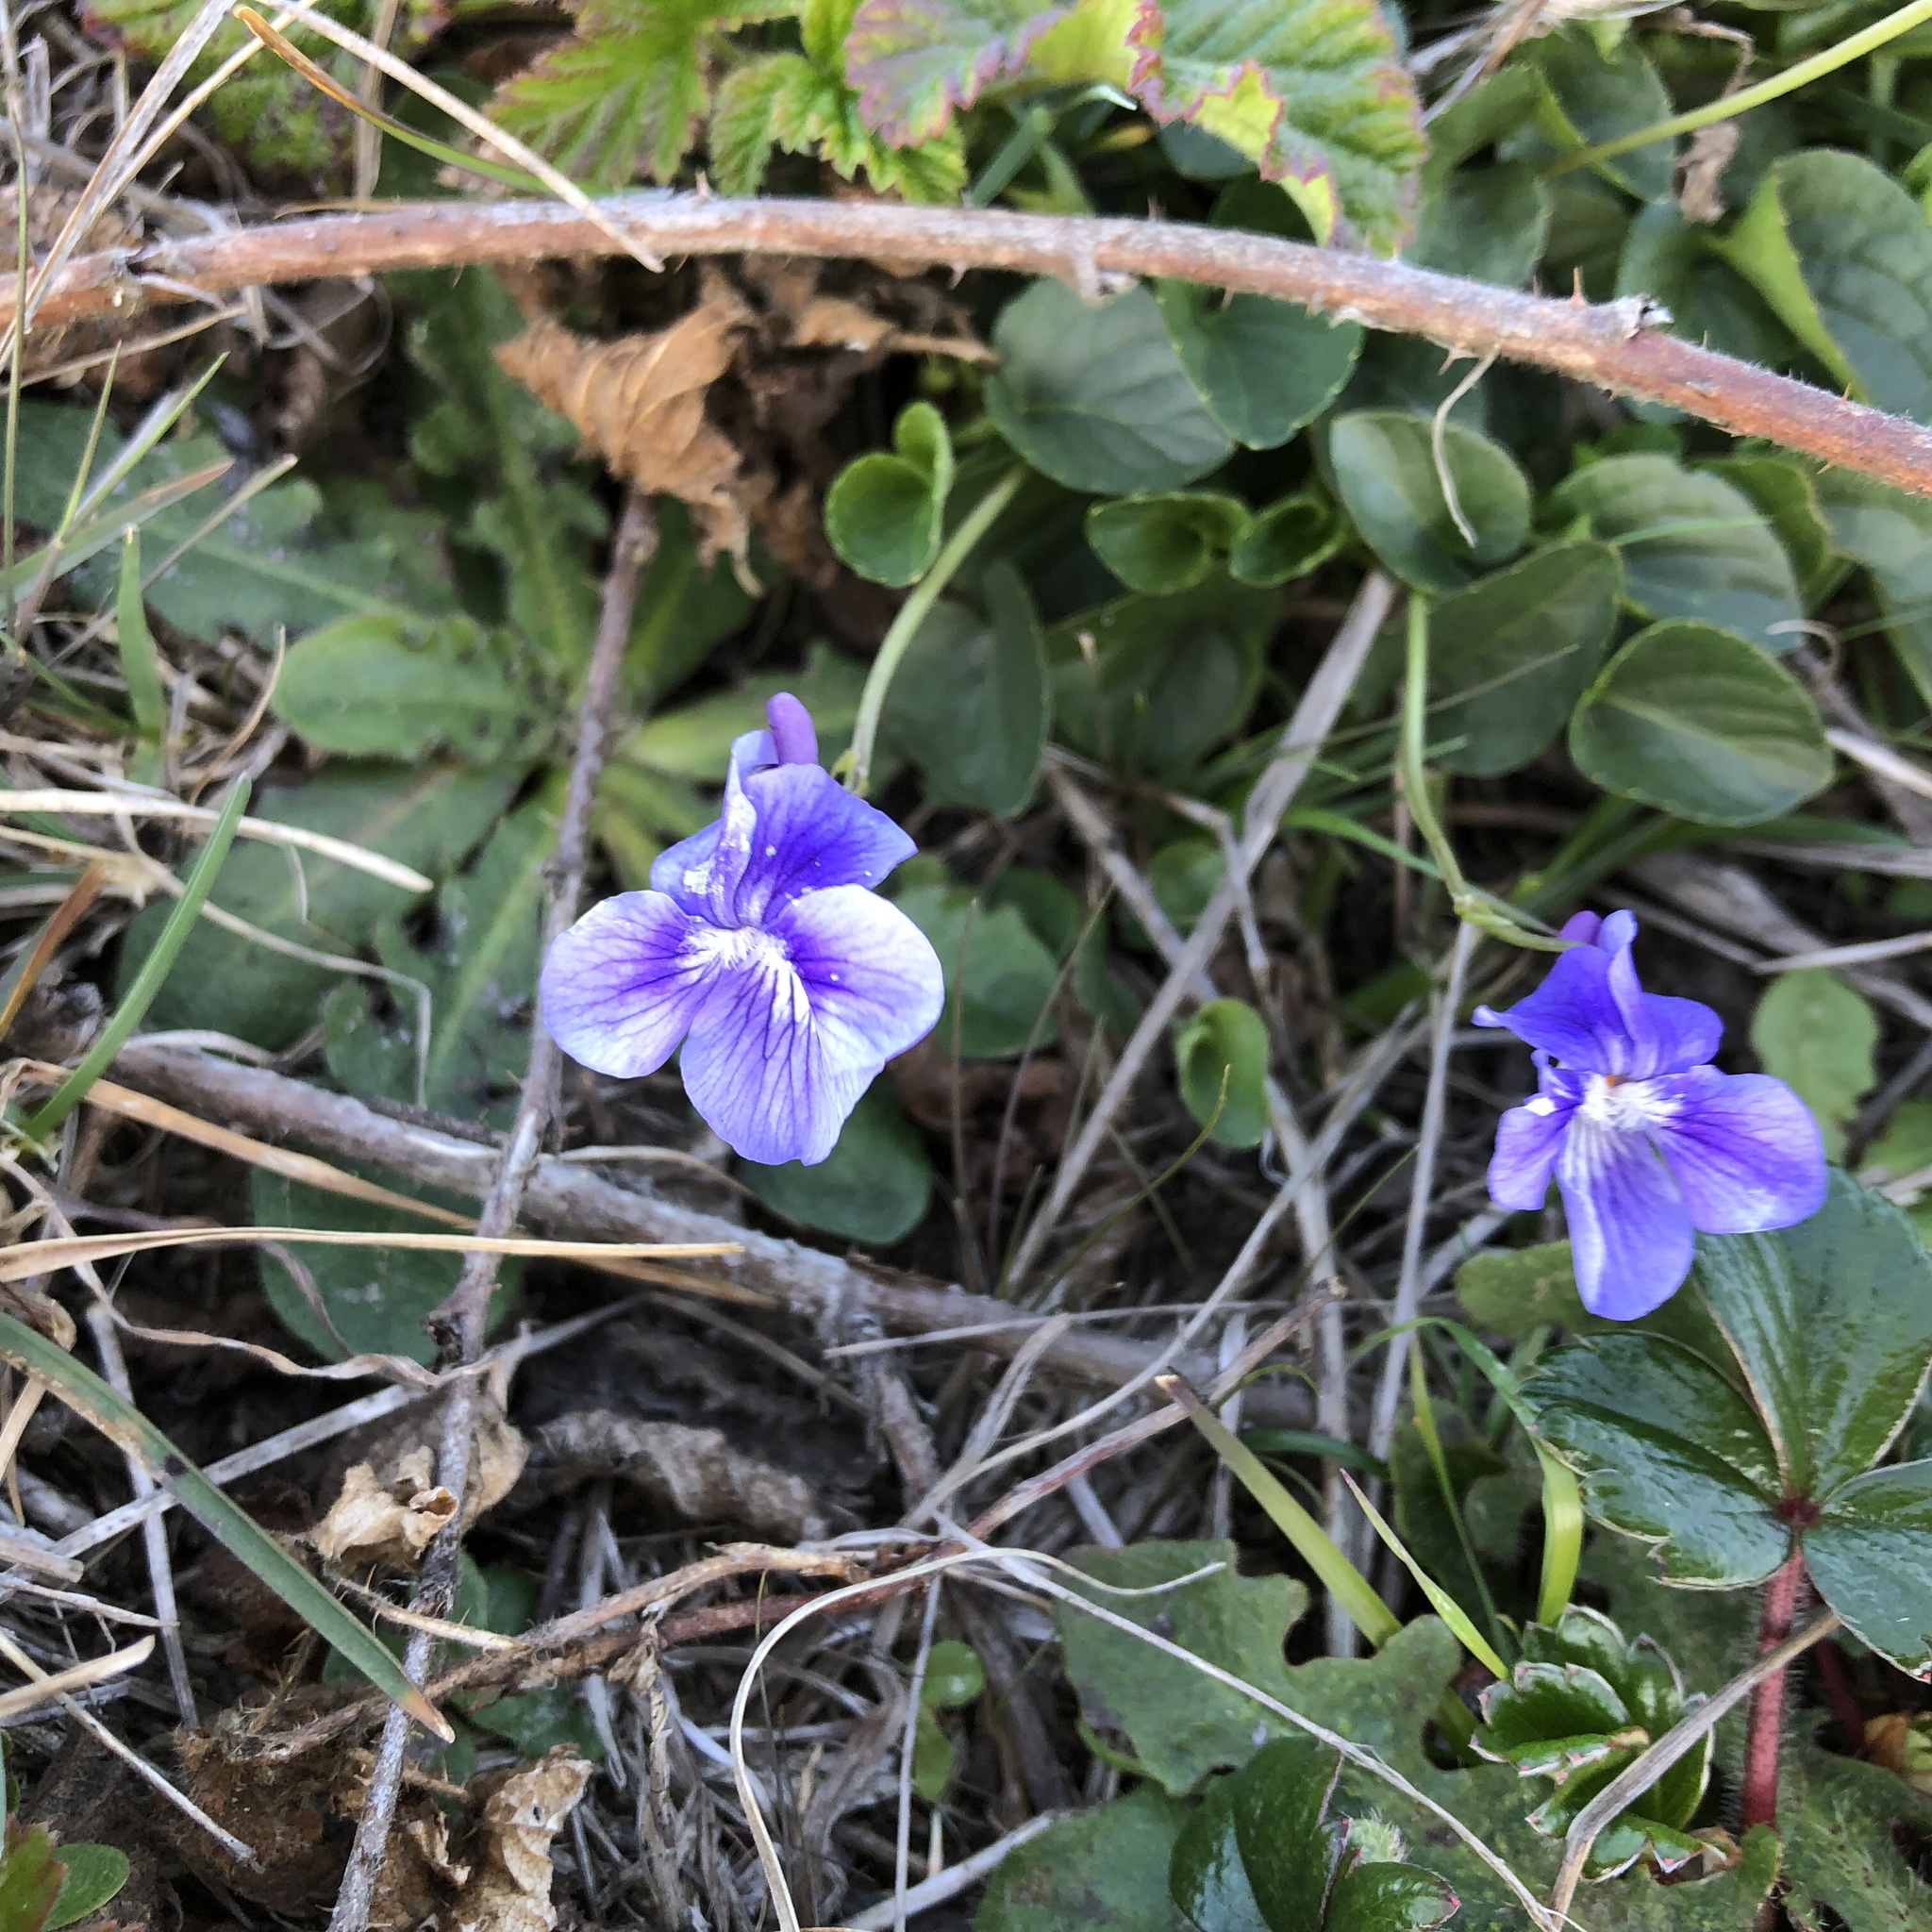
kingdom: Plantae
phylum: Tracheophyta
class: Magnoliopsida
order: Malpighiales
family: Violaceae
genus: Viola
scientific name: Viola adunca
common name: Sand violet
